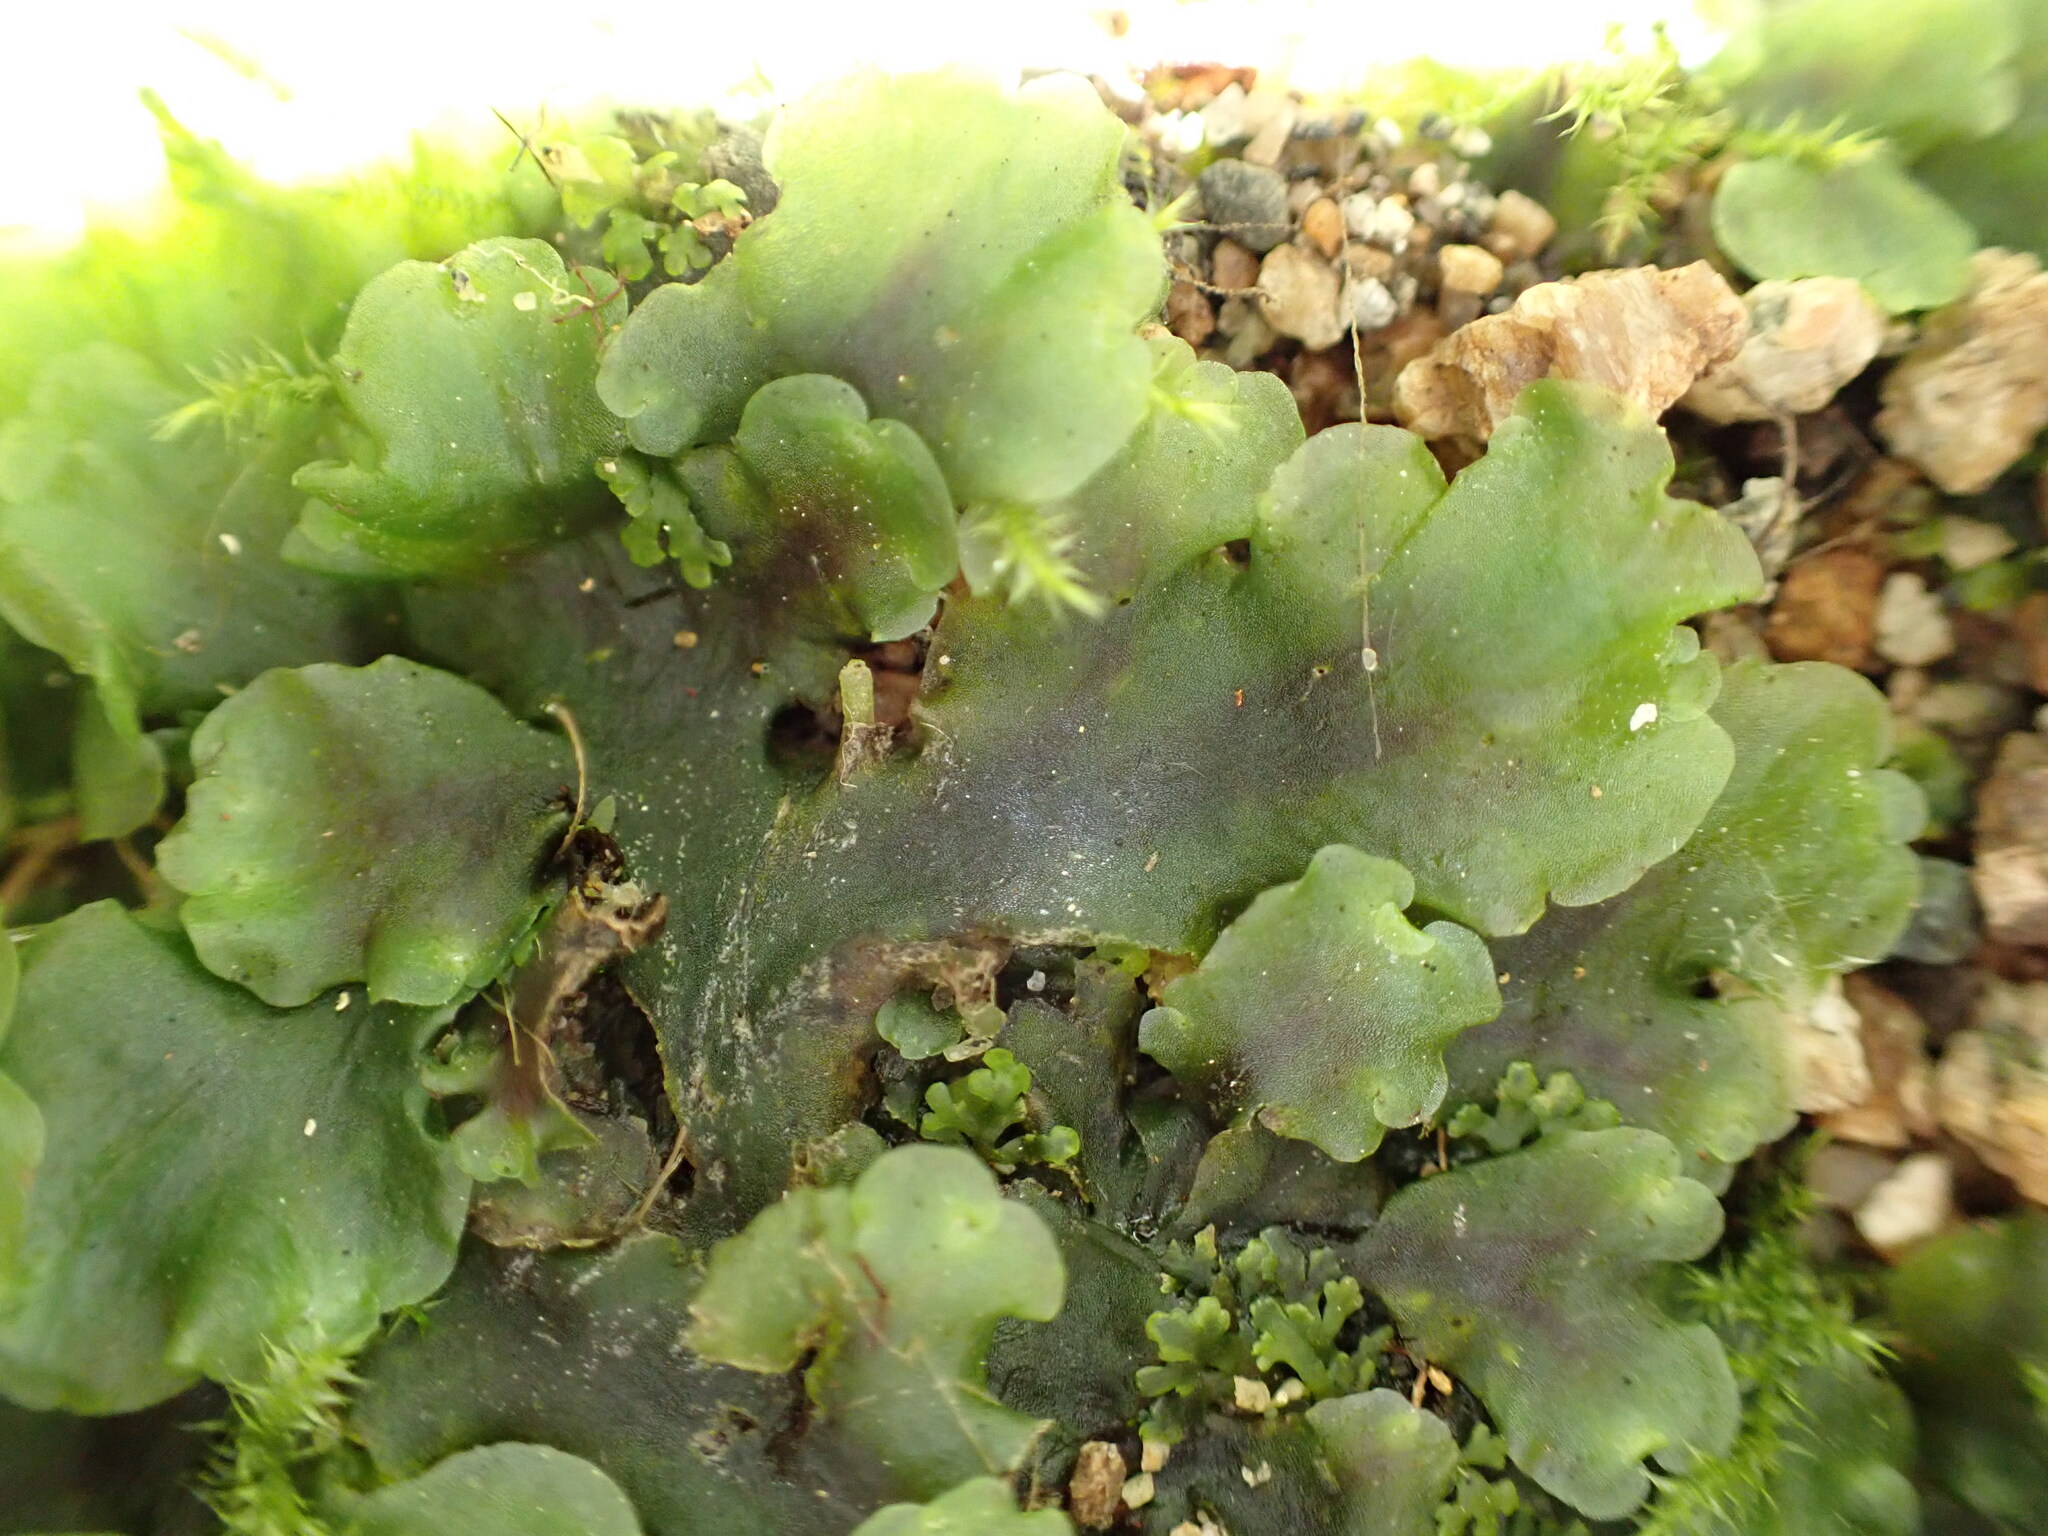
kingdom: Plantae
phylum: Marchantiophyta
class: Jungermanniopsida
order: Pelliales
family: Pelliaceae
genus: Pellia
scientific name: Pellia neesiana
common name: Nees  pellia
